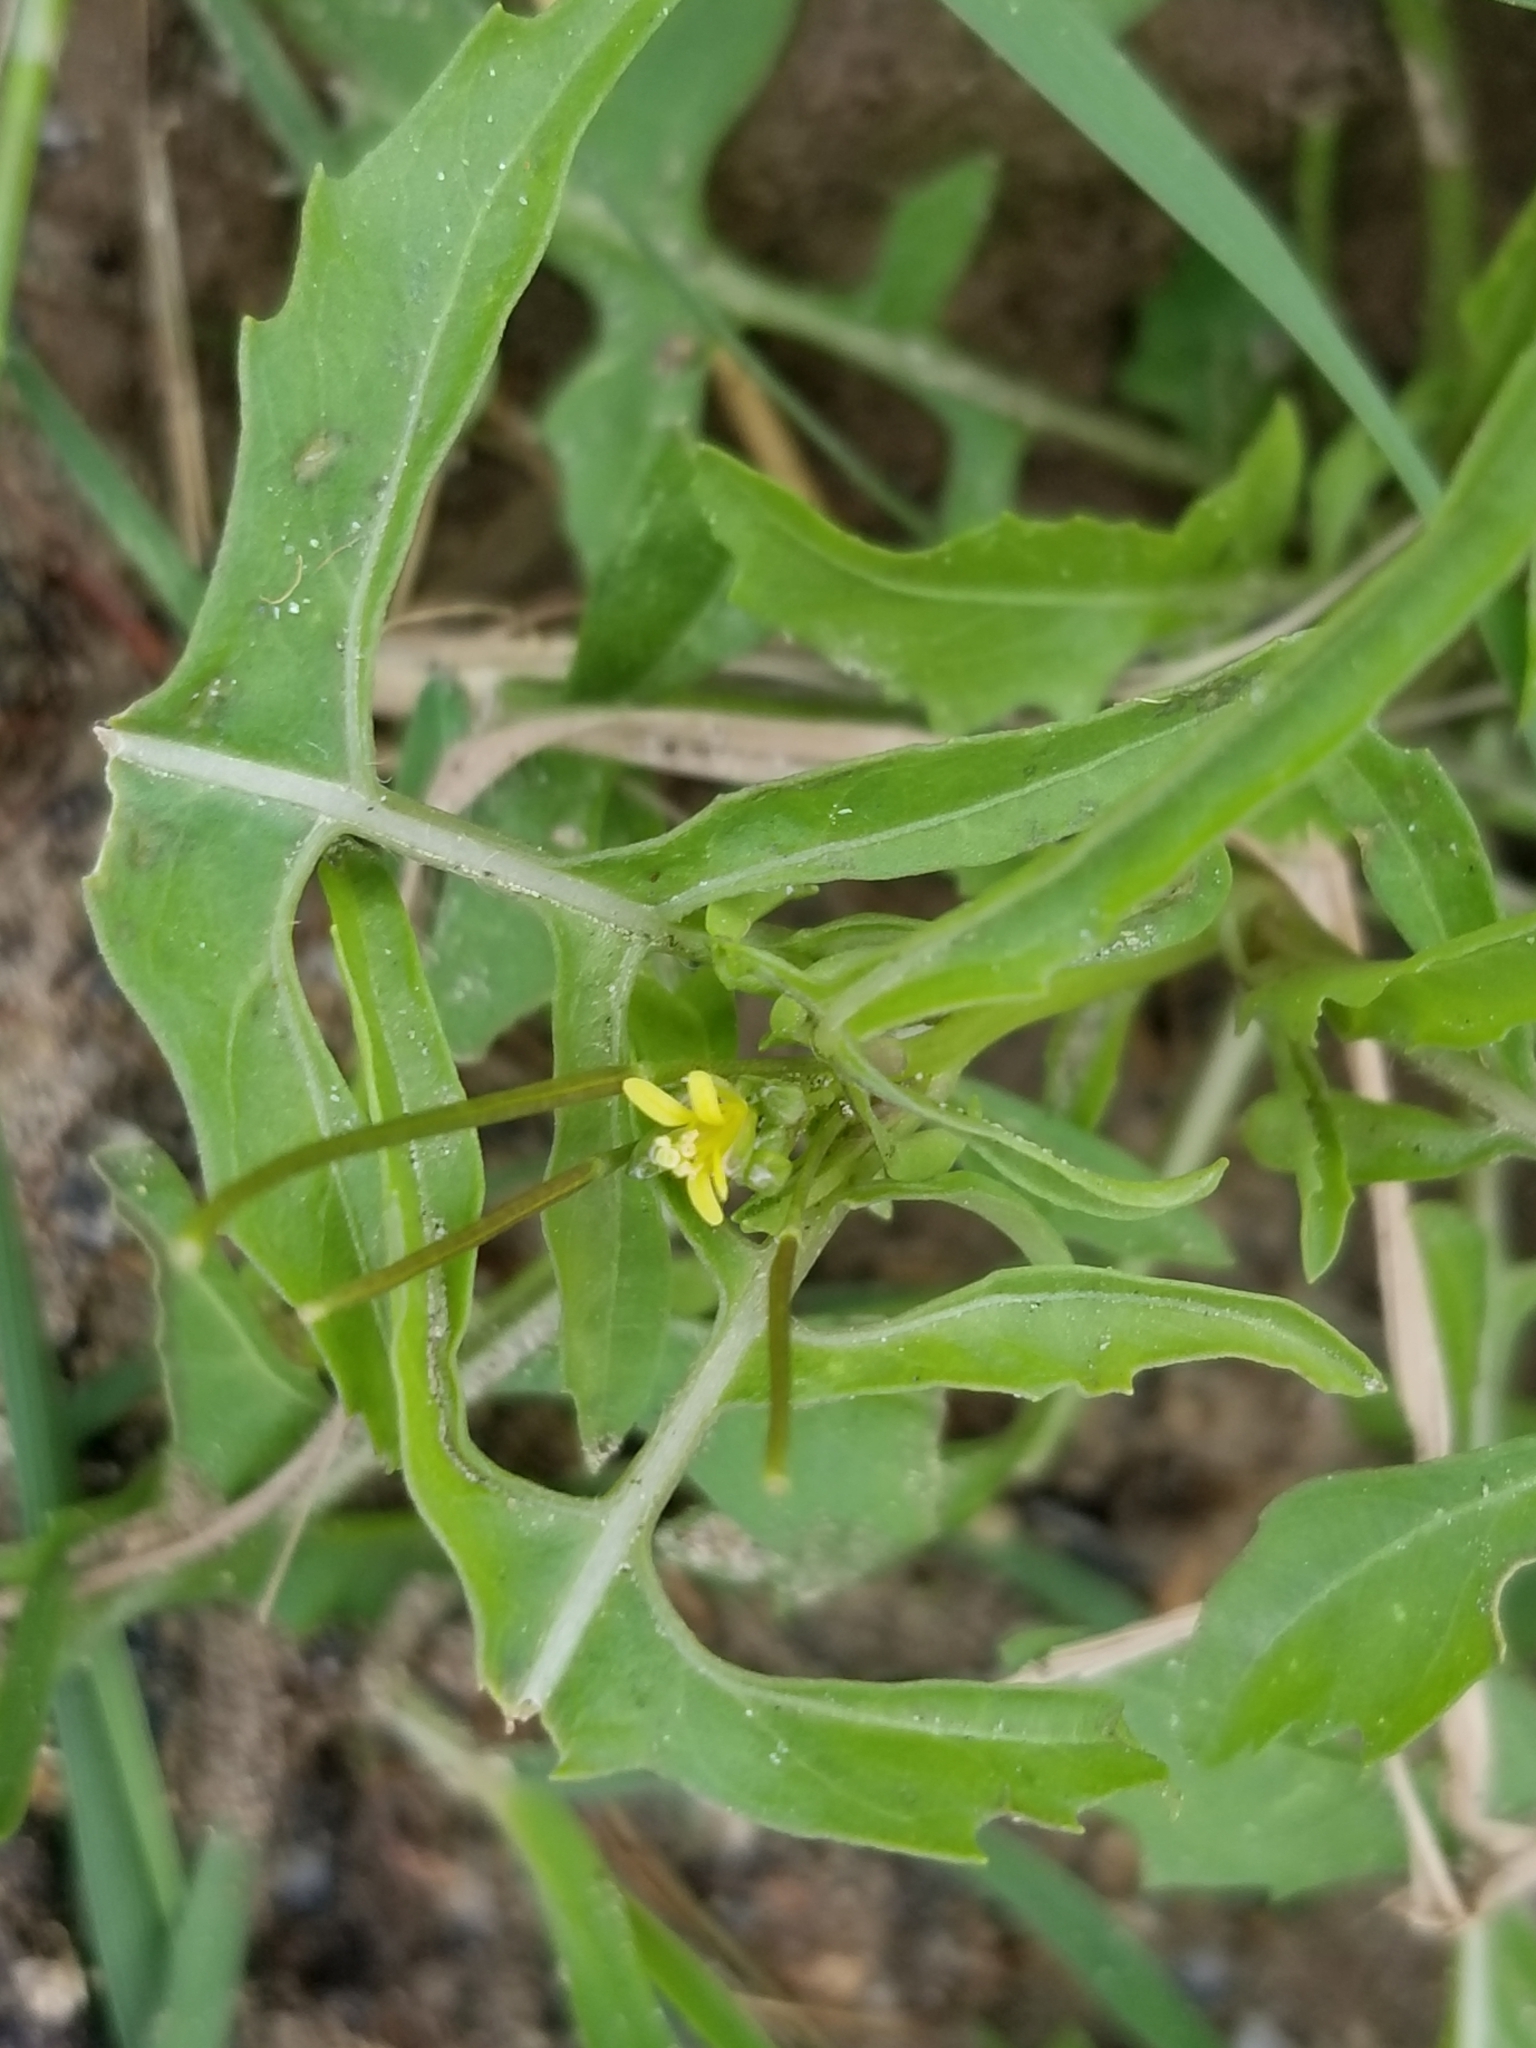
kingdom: Plantae
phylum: Tracheophyta
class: Magnoliopsida
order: Brassicales
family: Brassicaceae
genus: Sisymbrium
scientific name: Sisymbrium irio
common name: London rocket
